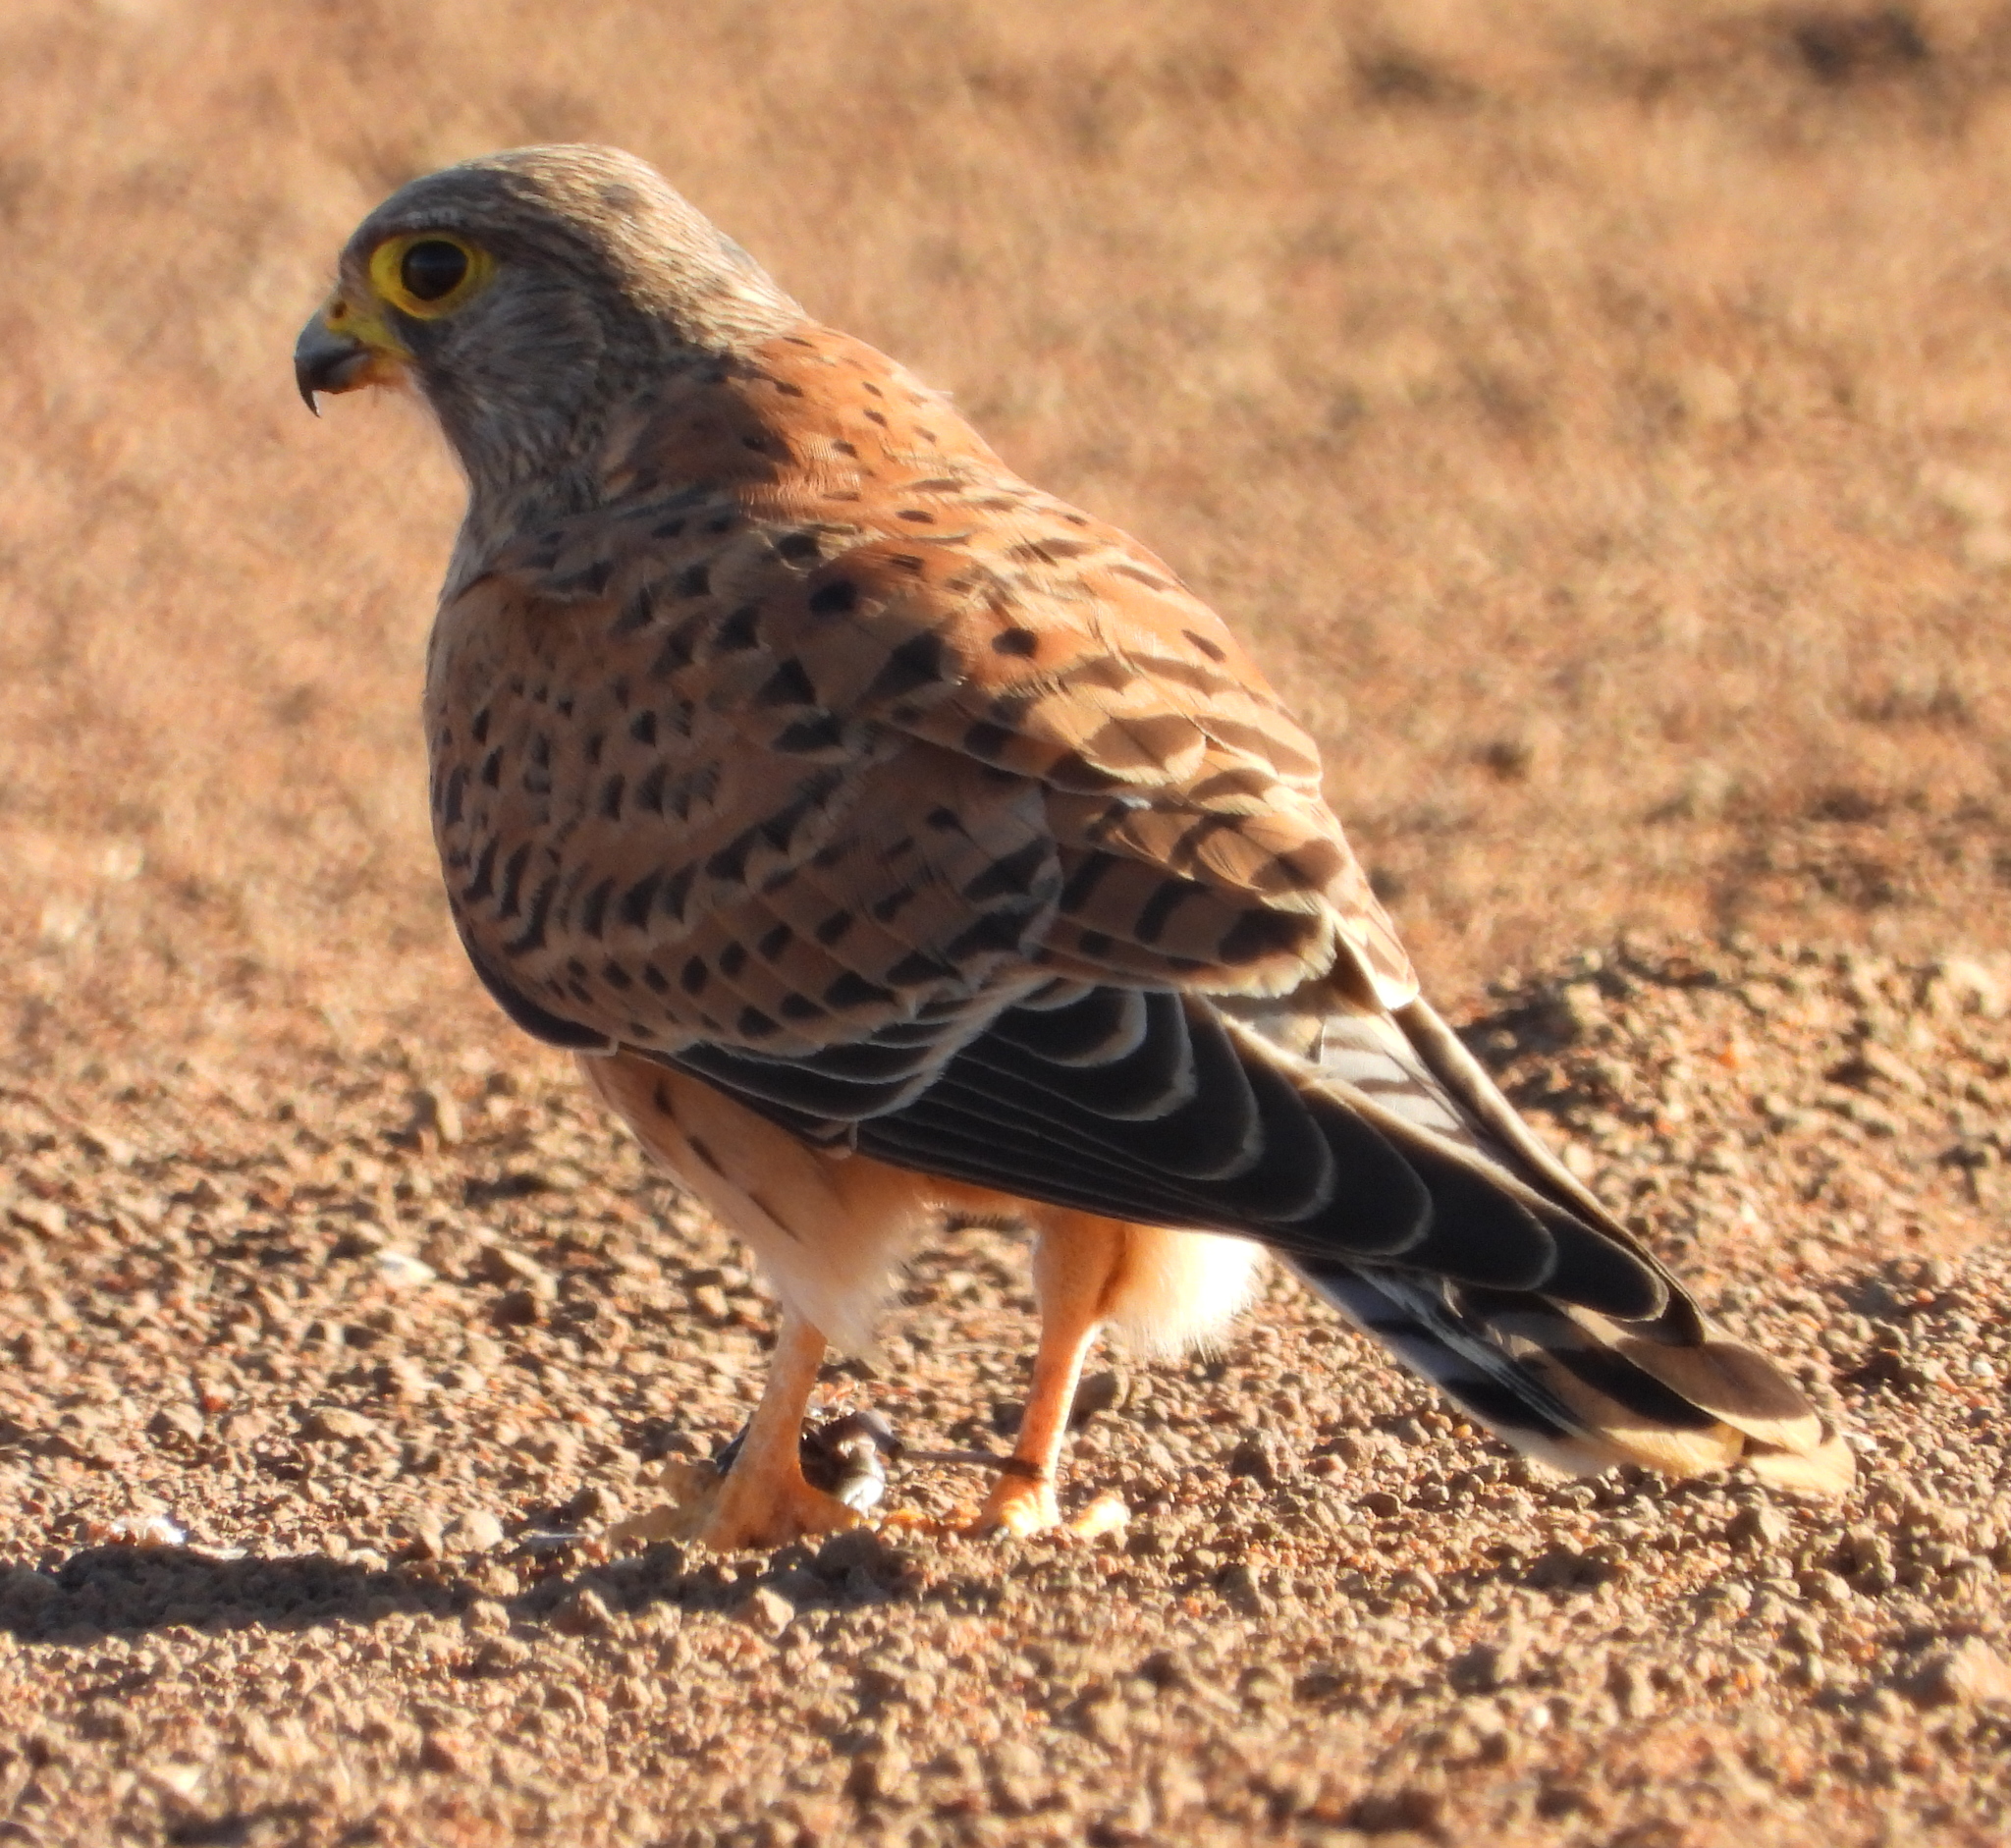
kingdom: Animalia
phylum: Chordata
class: Aves
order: Falconiformes
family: Falconidae
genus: Falco
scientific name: Falco rupicolus
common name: Rock kestrel
